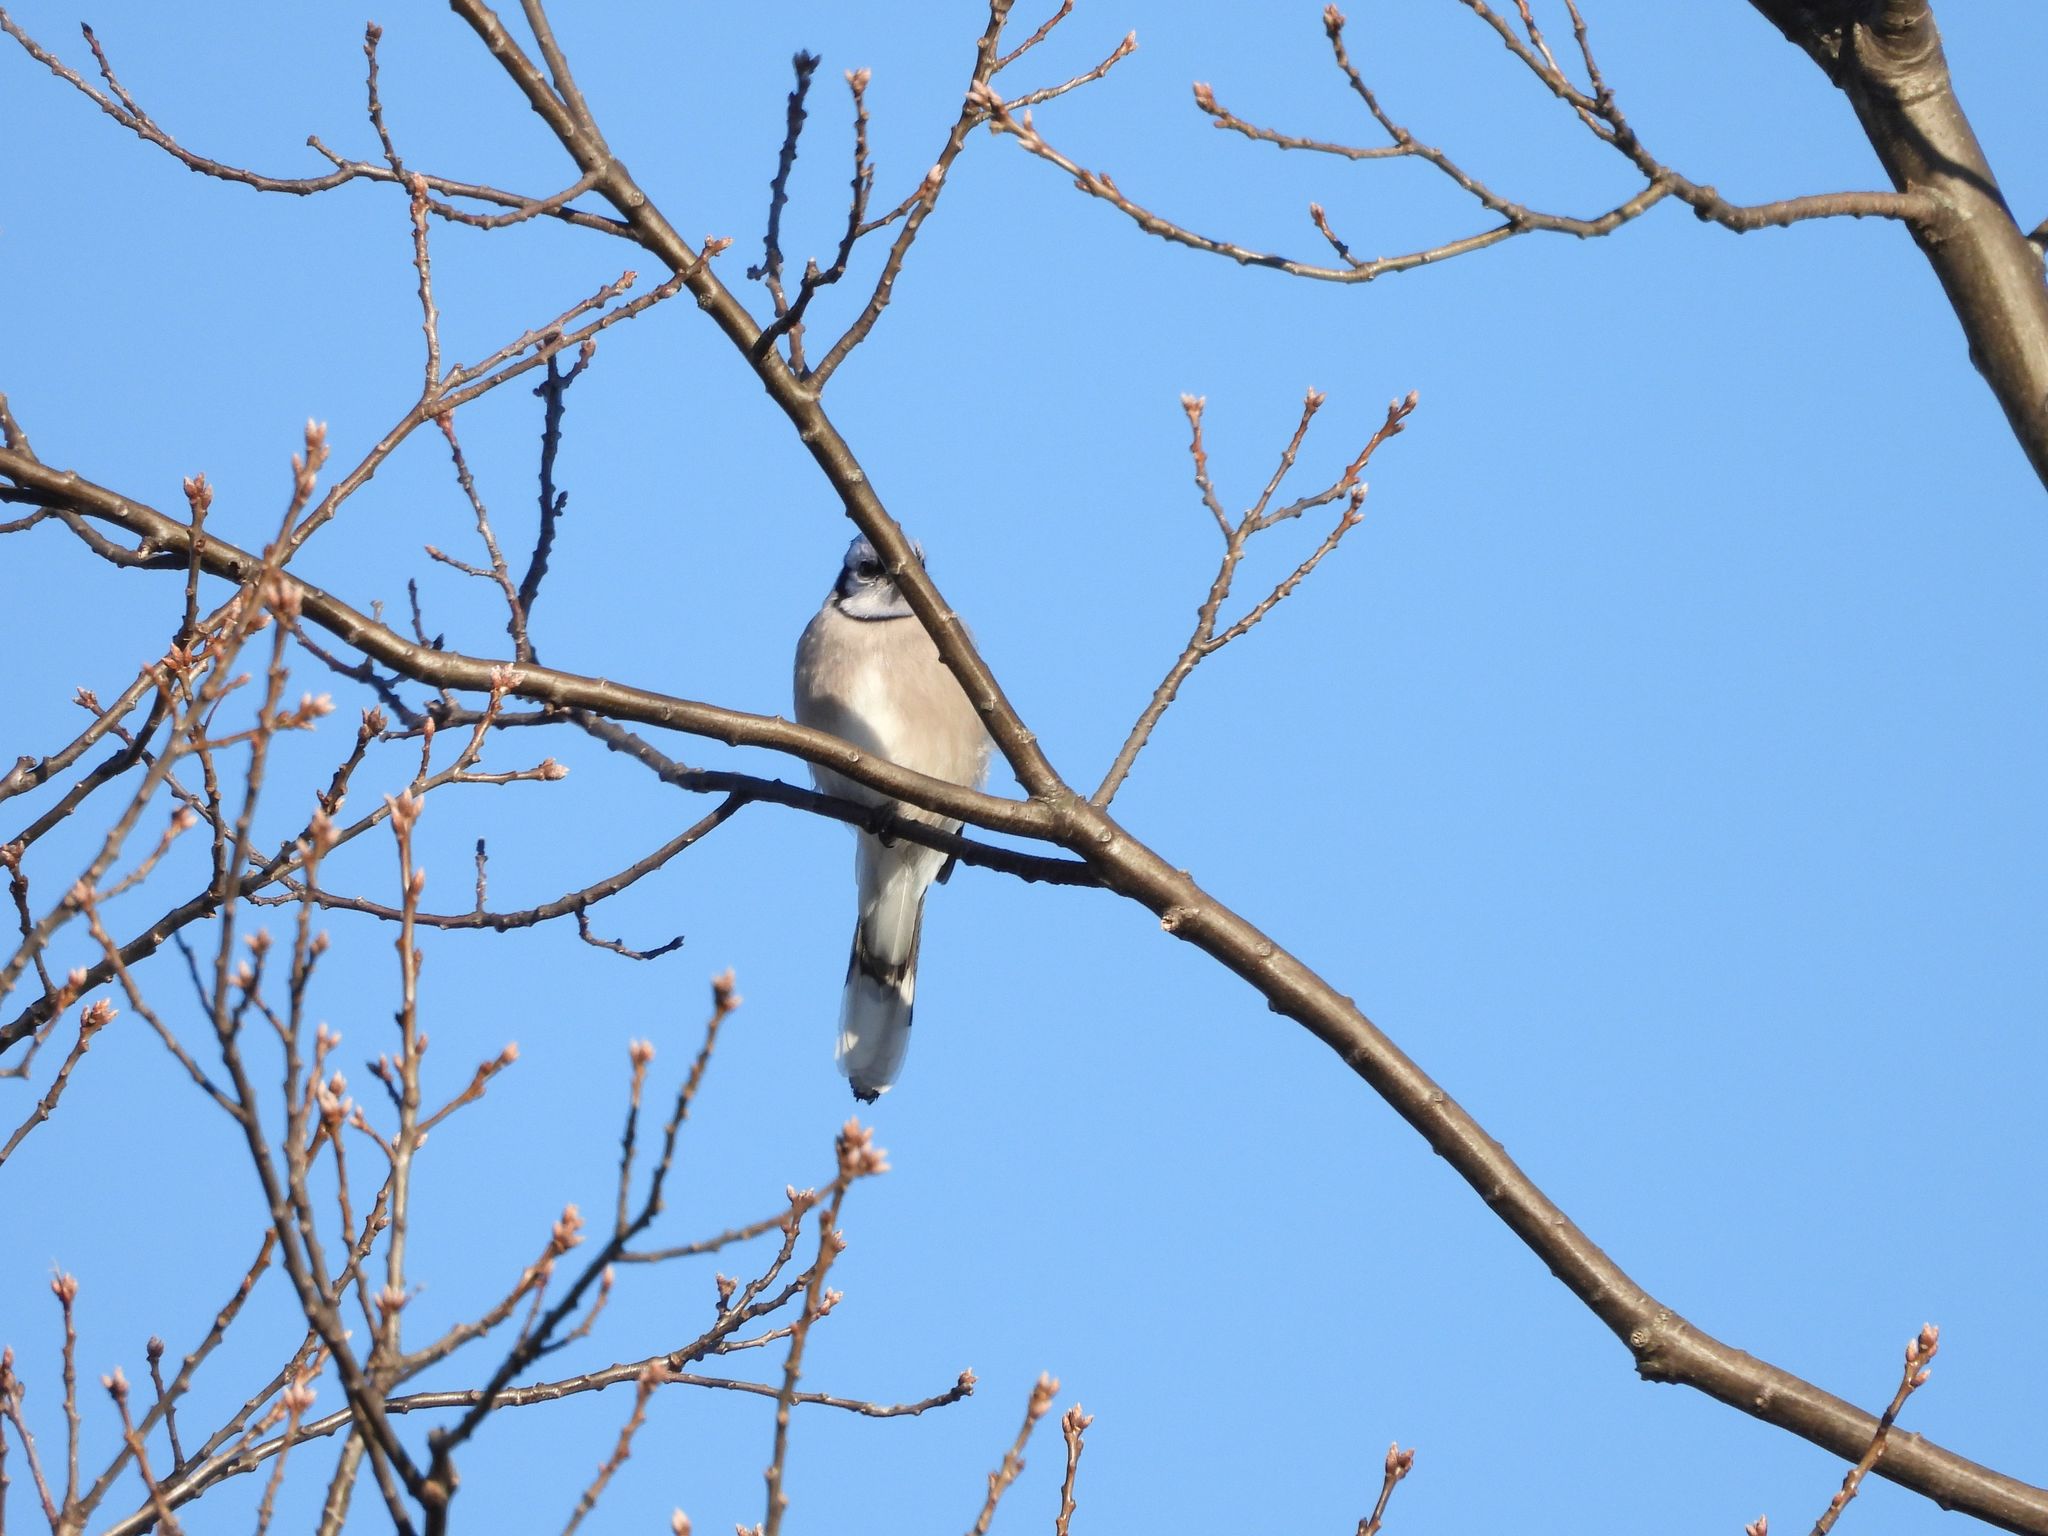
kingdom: Animalia
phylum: Chordata
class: Aves
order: Passeriformes
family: Corvidae
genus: Cyanocitta
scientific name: Cyanocitta cristata
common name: Blue jay
